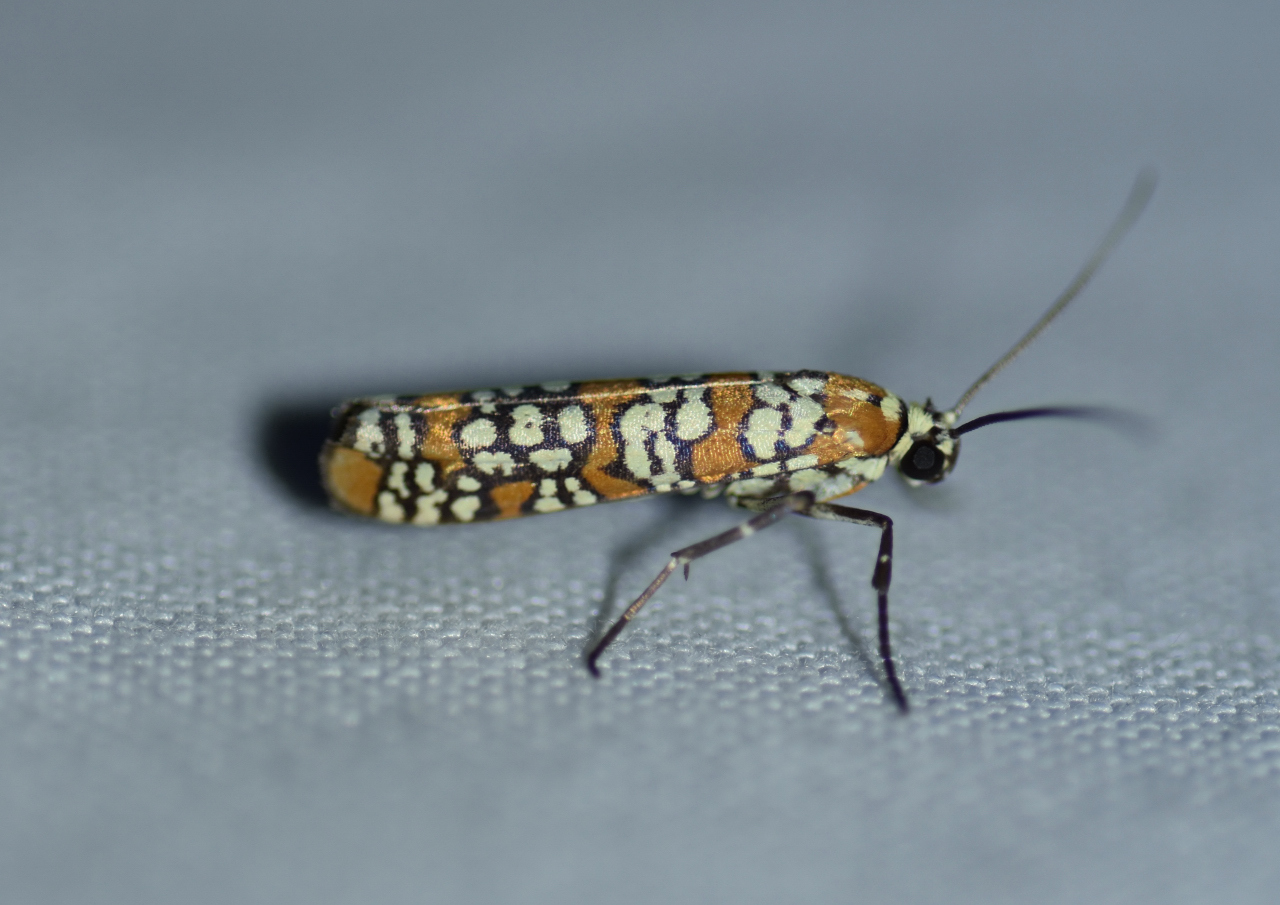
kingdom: Animalia
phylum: Arthropoda
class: Insecta
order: Lepidoptera
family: Attevidae
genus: Atteva
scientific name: Atteva punctella
